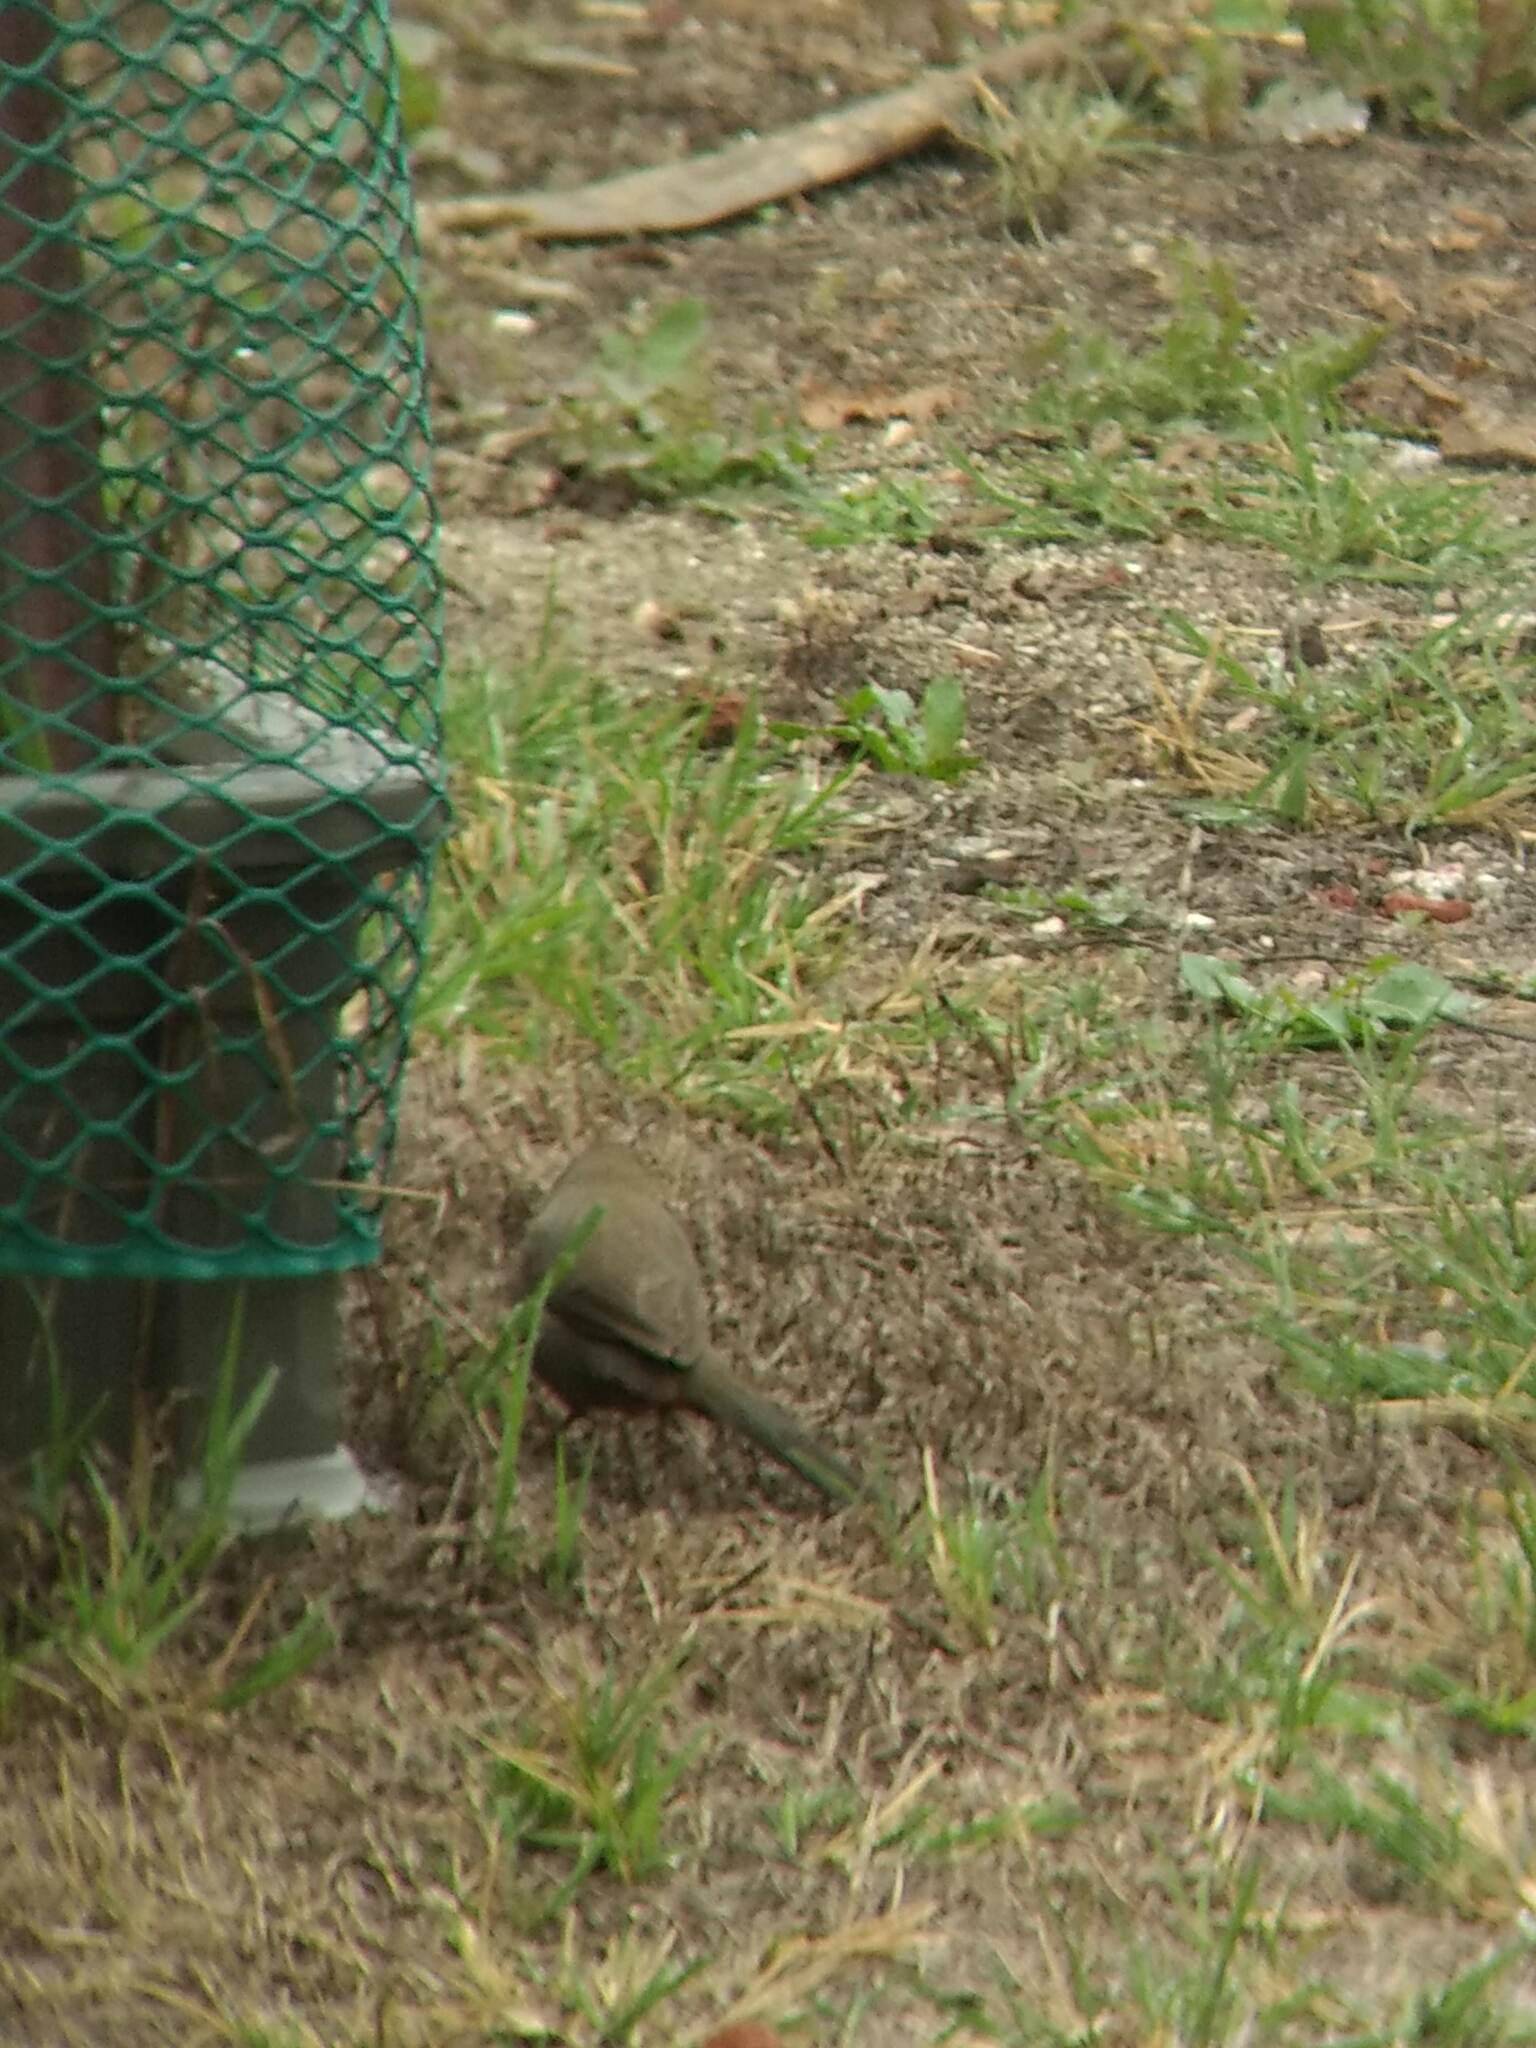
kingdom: Animalia
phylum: Chordata
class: Aves
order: Passeriformes
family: Passerellidae
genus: Melozone
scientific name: Melozone crissalis
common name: California towhee
